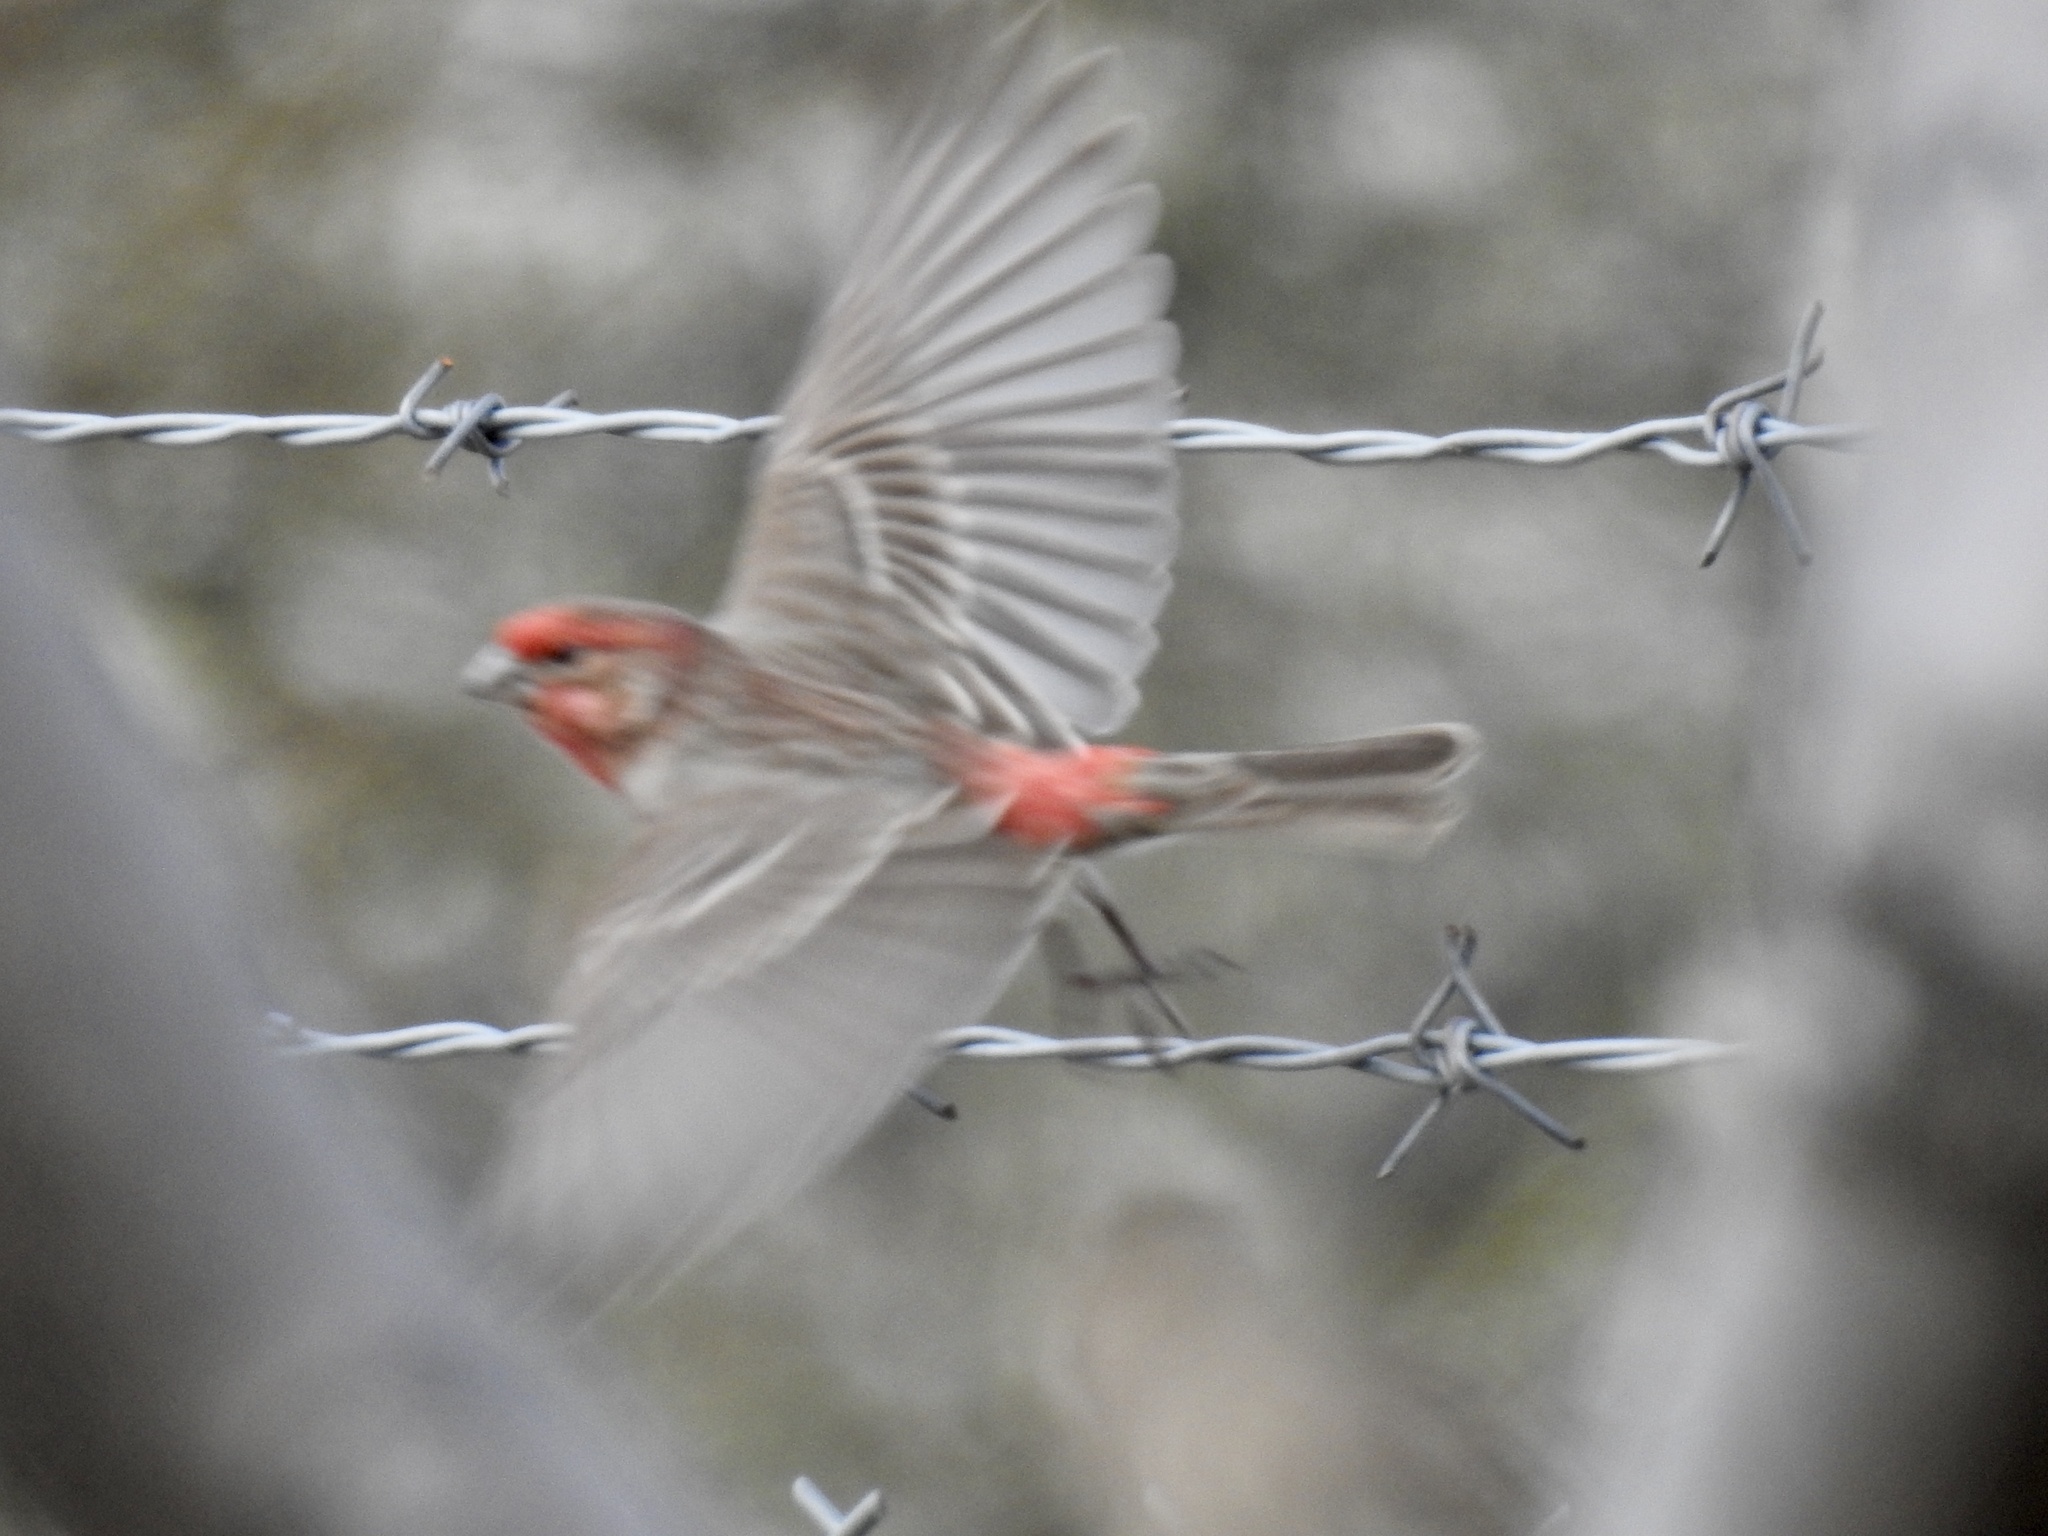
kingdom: Animalia
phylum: Chordata
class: Aves
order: Passeriformes
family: Fringillidae
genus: Haemorhous
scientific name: Haemorhous mexicanus
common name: House finch
